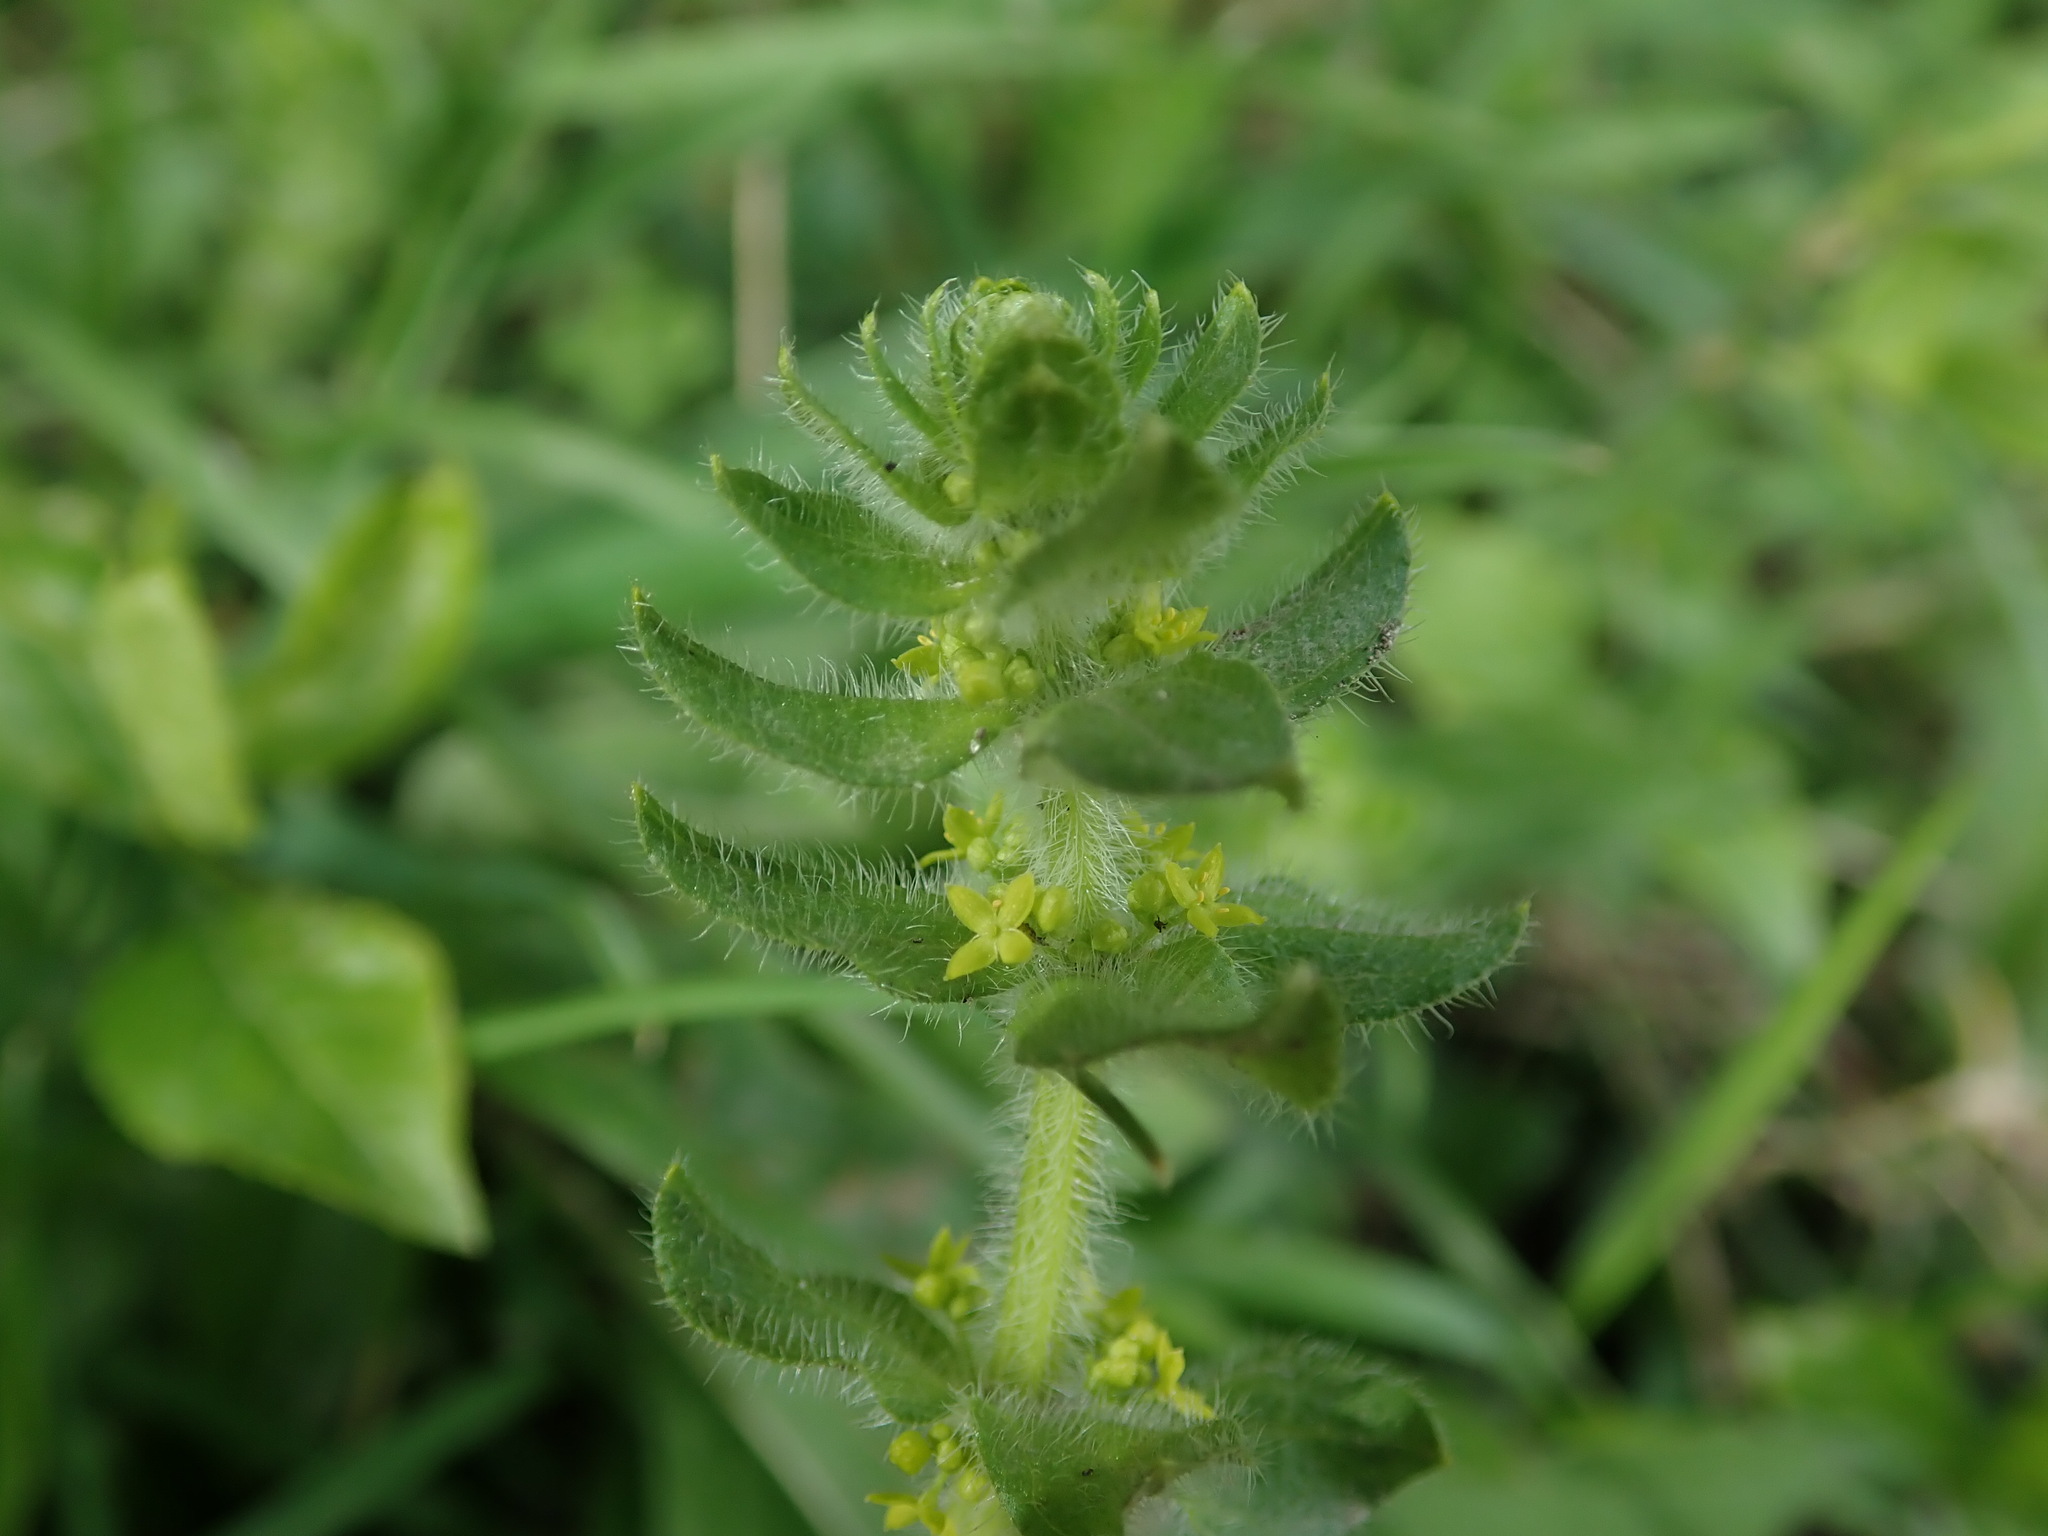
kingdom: Plantae
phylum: Tracheophyta
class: Magnoliopsida
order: Gentianales
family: Rubiaceae
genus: Cruciata
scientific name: Cruciata laevipes
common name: Crosswort
